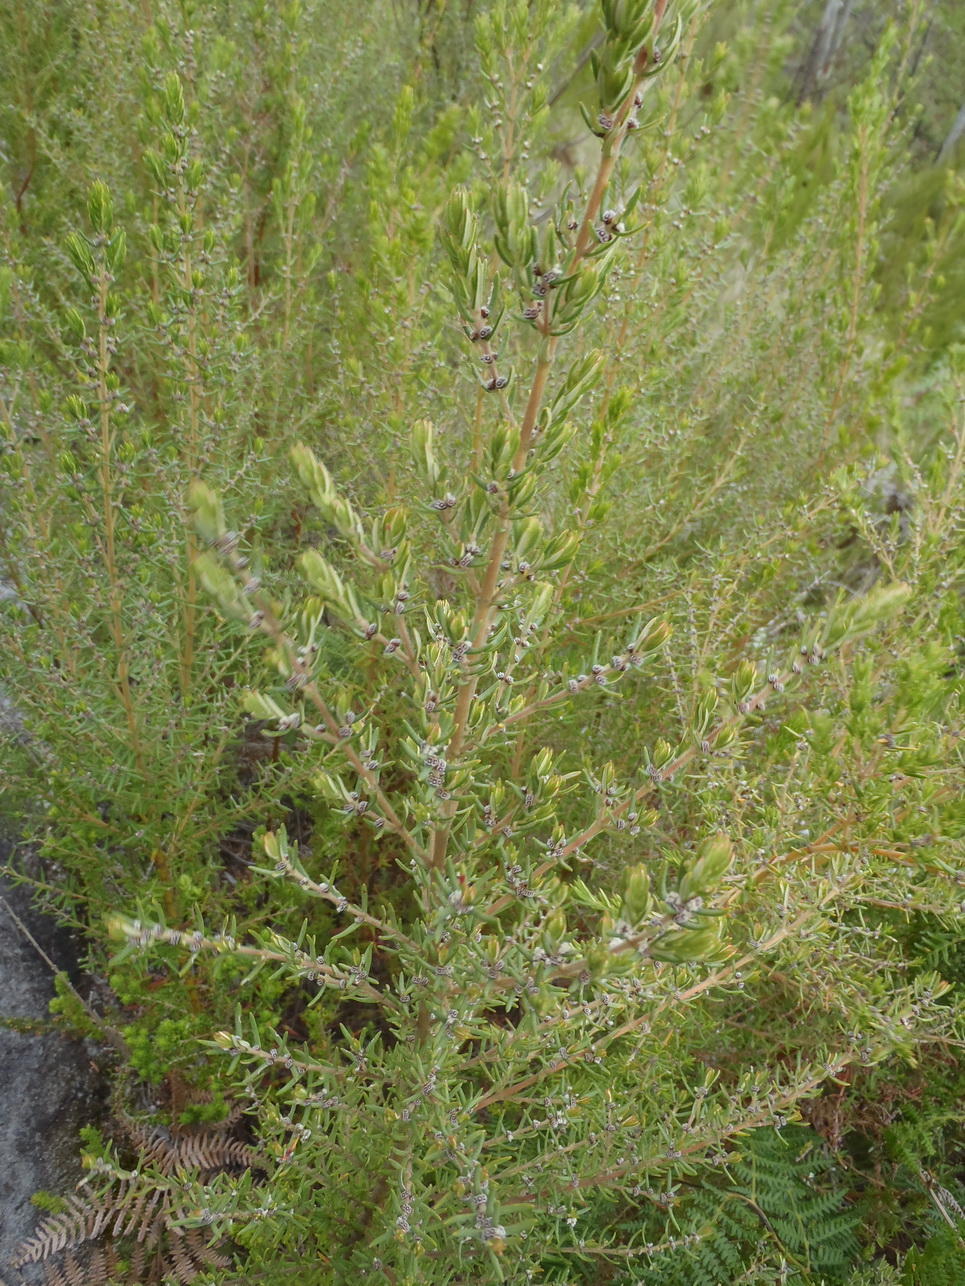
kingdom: Plantae
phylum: Tracheophyta
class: Magnoliopsida
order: Cornales
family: Grubbiaceae
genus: Grubbia
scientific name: Grubbia rosmarinifolia
